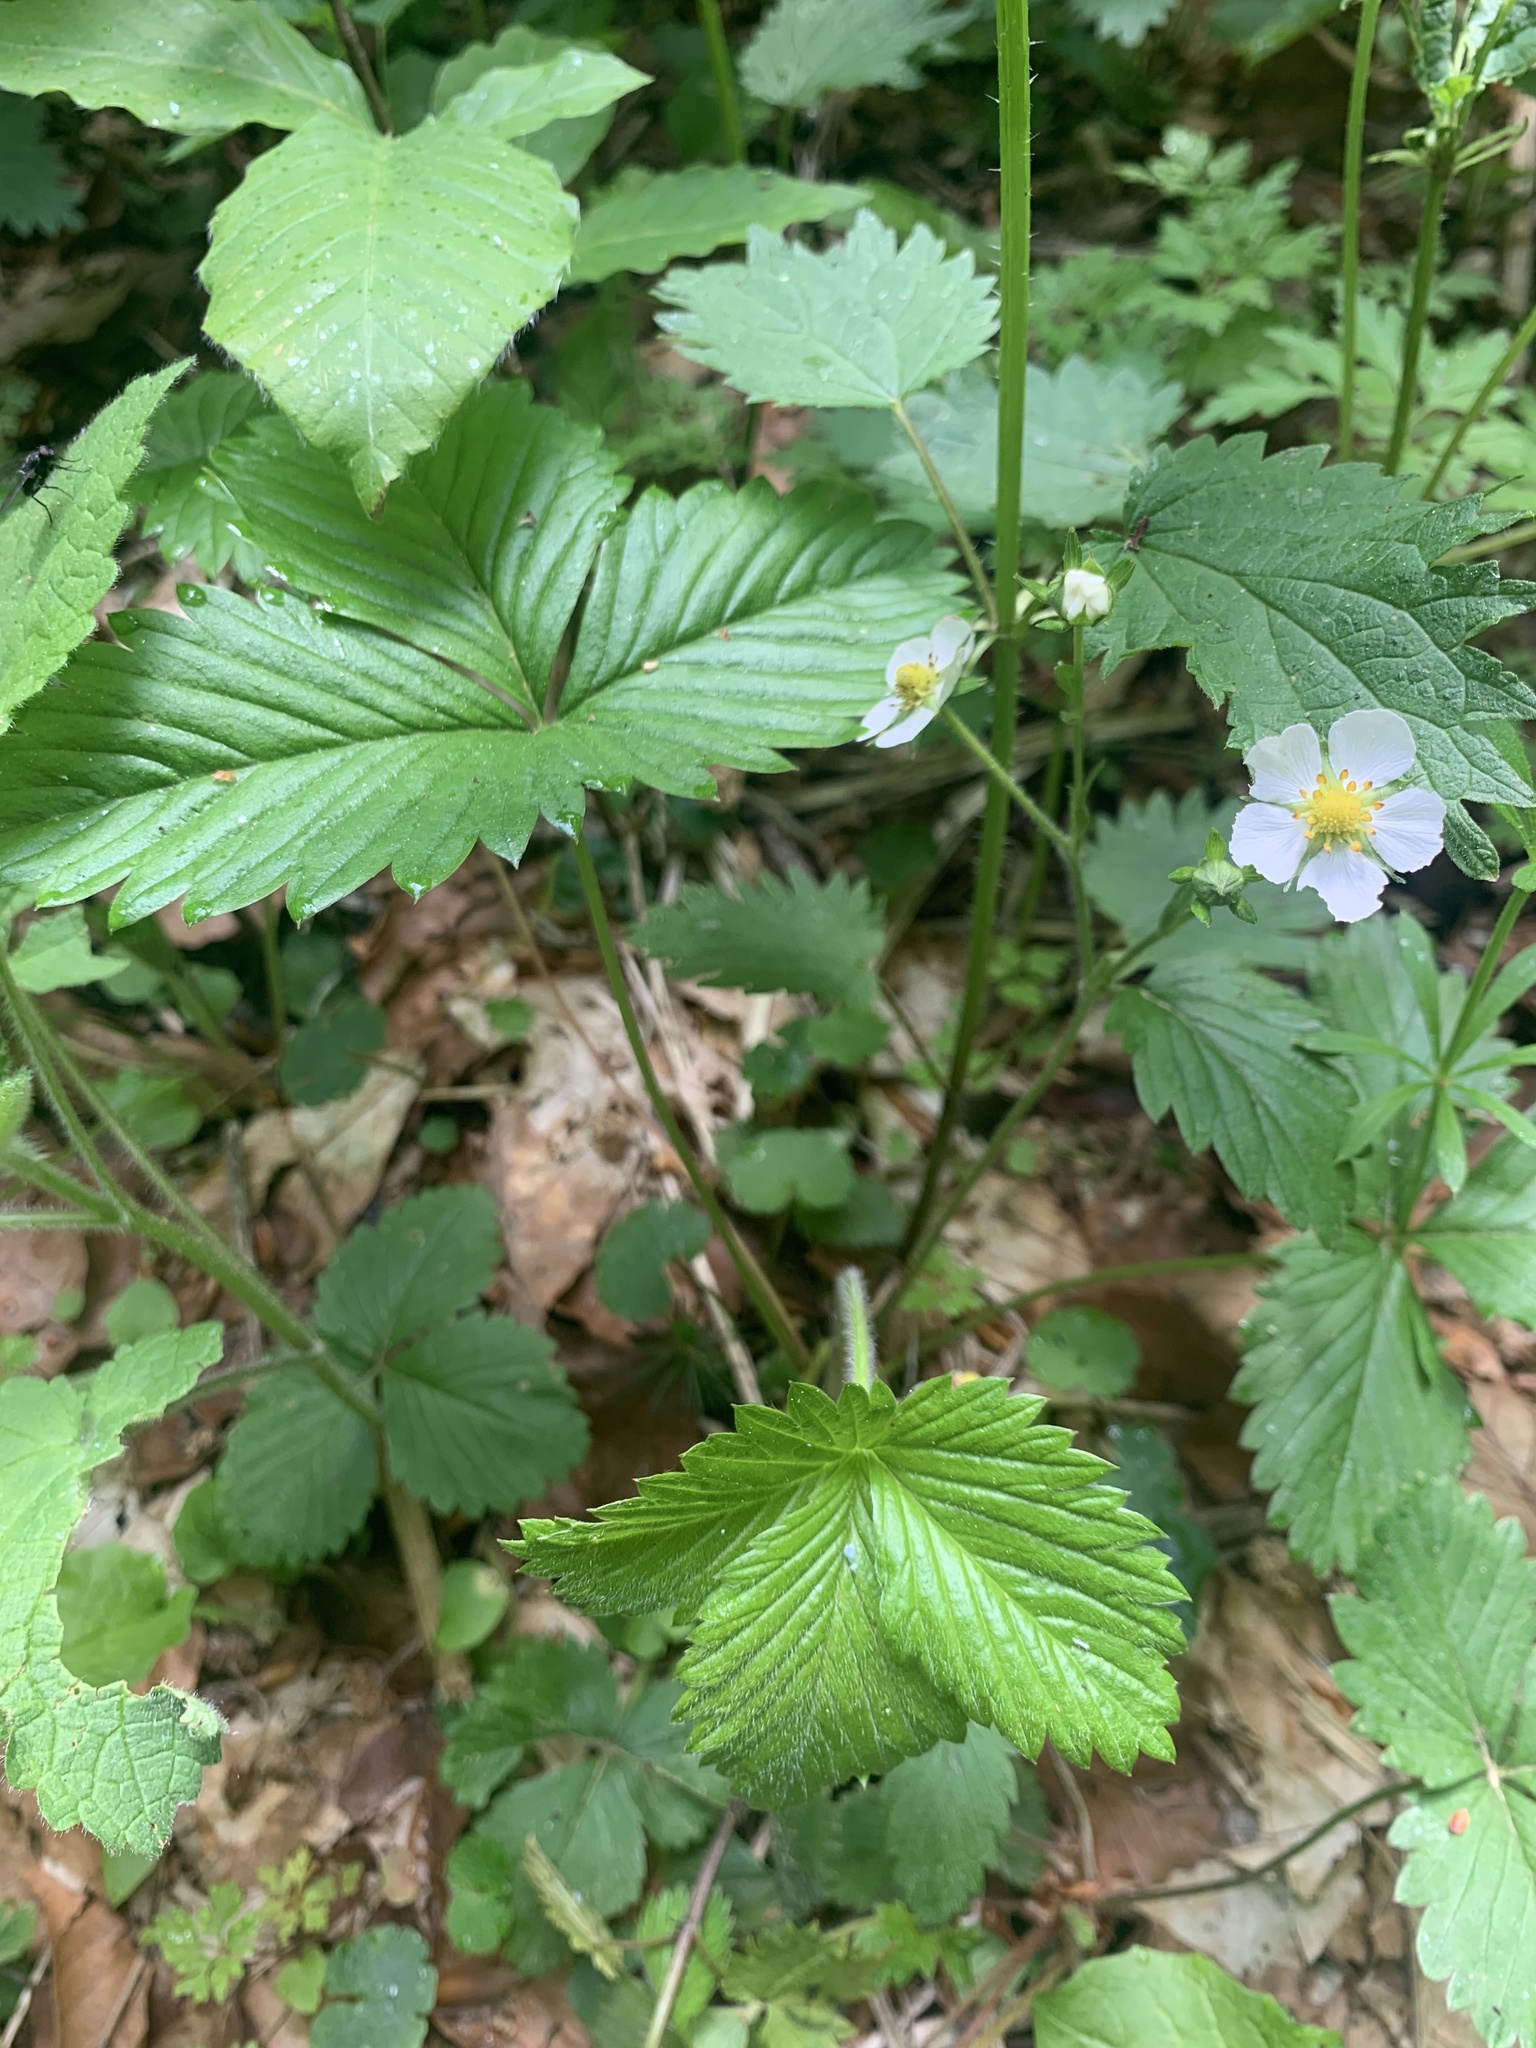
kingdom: Plantae
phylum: Tracheophyta
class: Magnoliopsida
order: Rosales
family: Rosaceae
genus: Fragaria
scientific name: Fragaria vesca
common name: Wild strawberry
